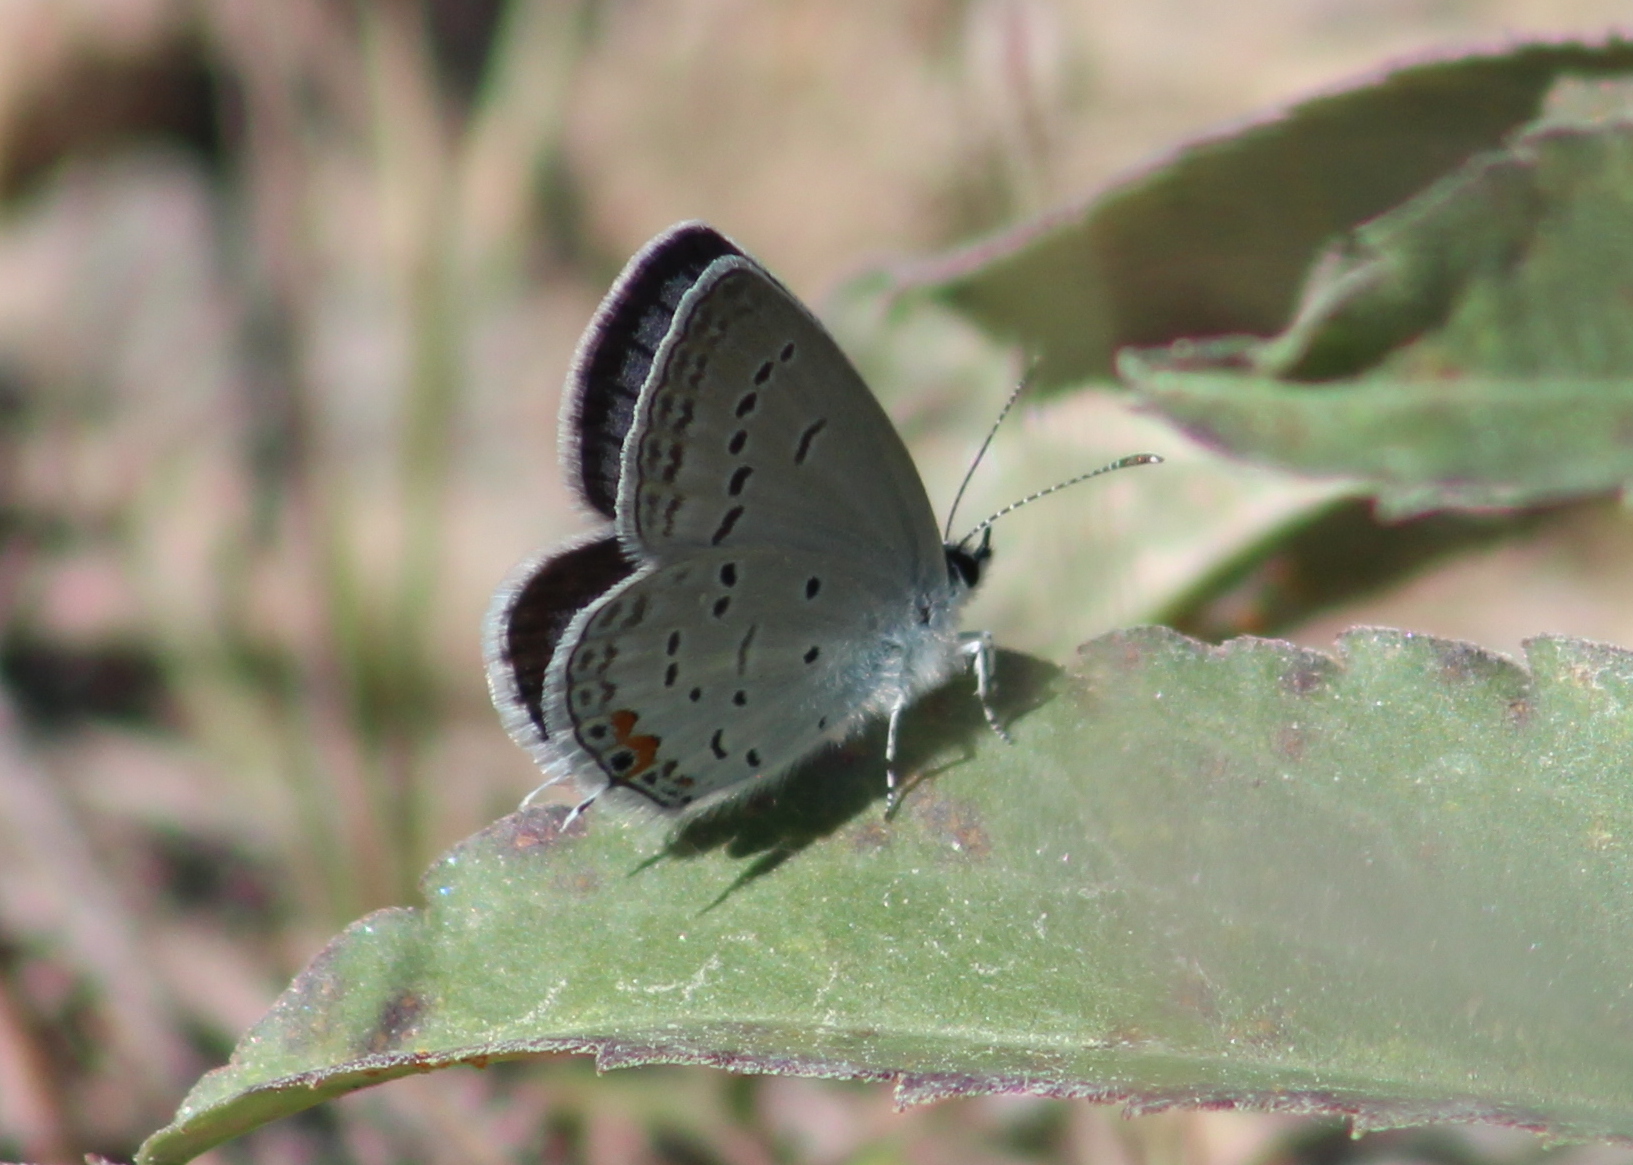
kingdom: Animalia
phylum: Arthropoda
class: Insecta
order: Lepidoptera
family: Lycaenidae
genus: Elkalyce
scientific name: Elkalyce comyntas
